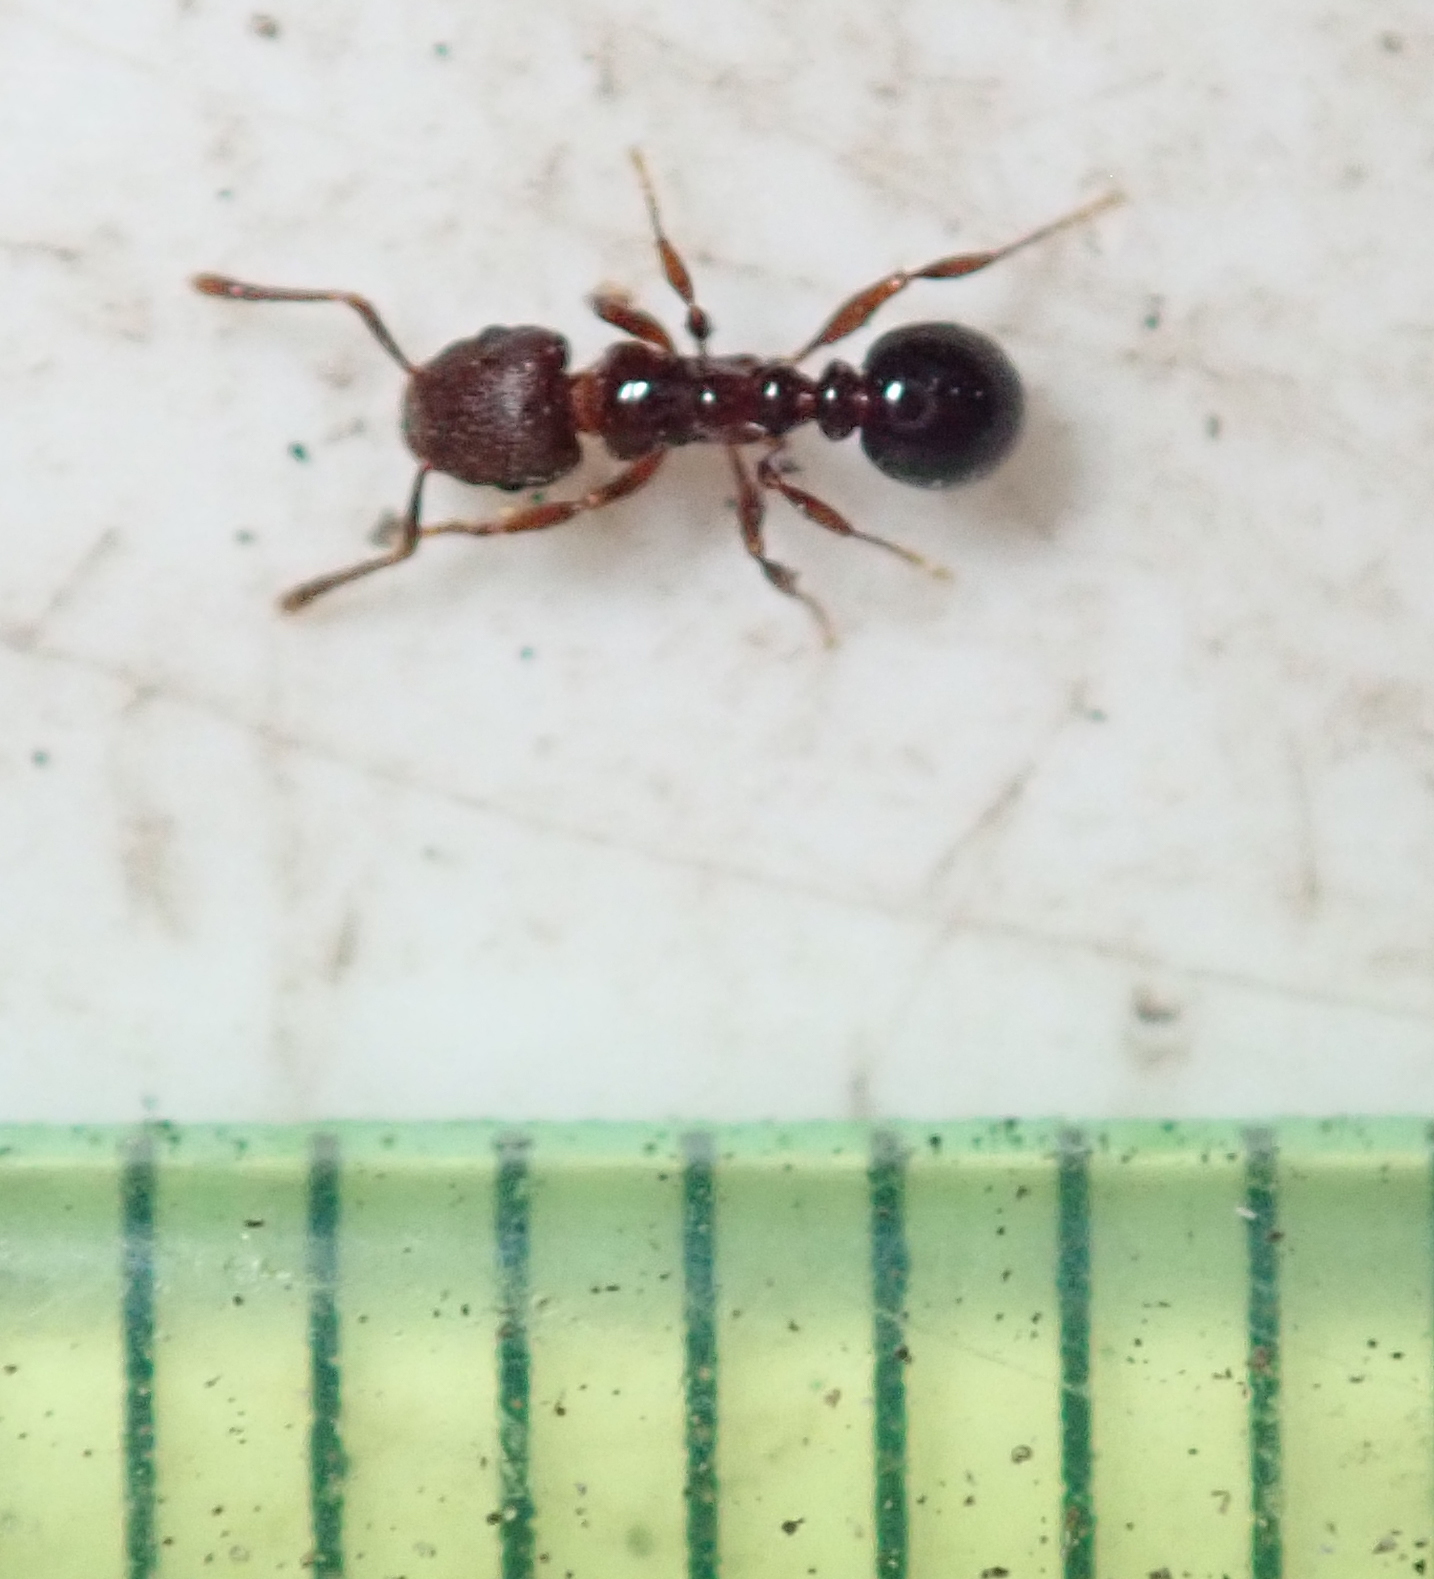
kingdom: Animalia
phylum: Arthropoda
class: Insecta
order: Hymenoptera
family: Formicidae
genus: Tetramorium
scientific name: Tetramorium humbloti
